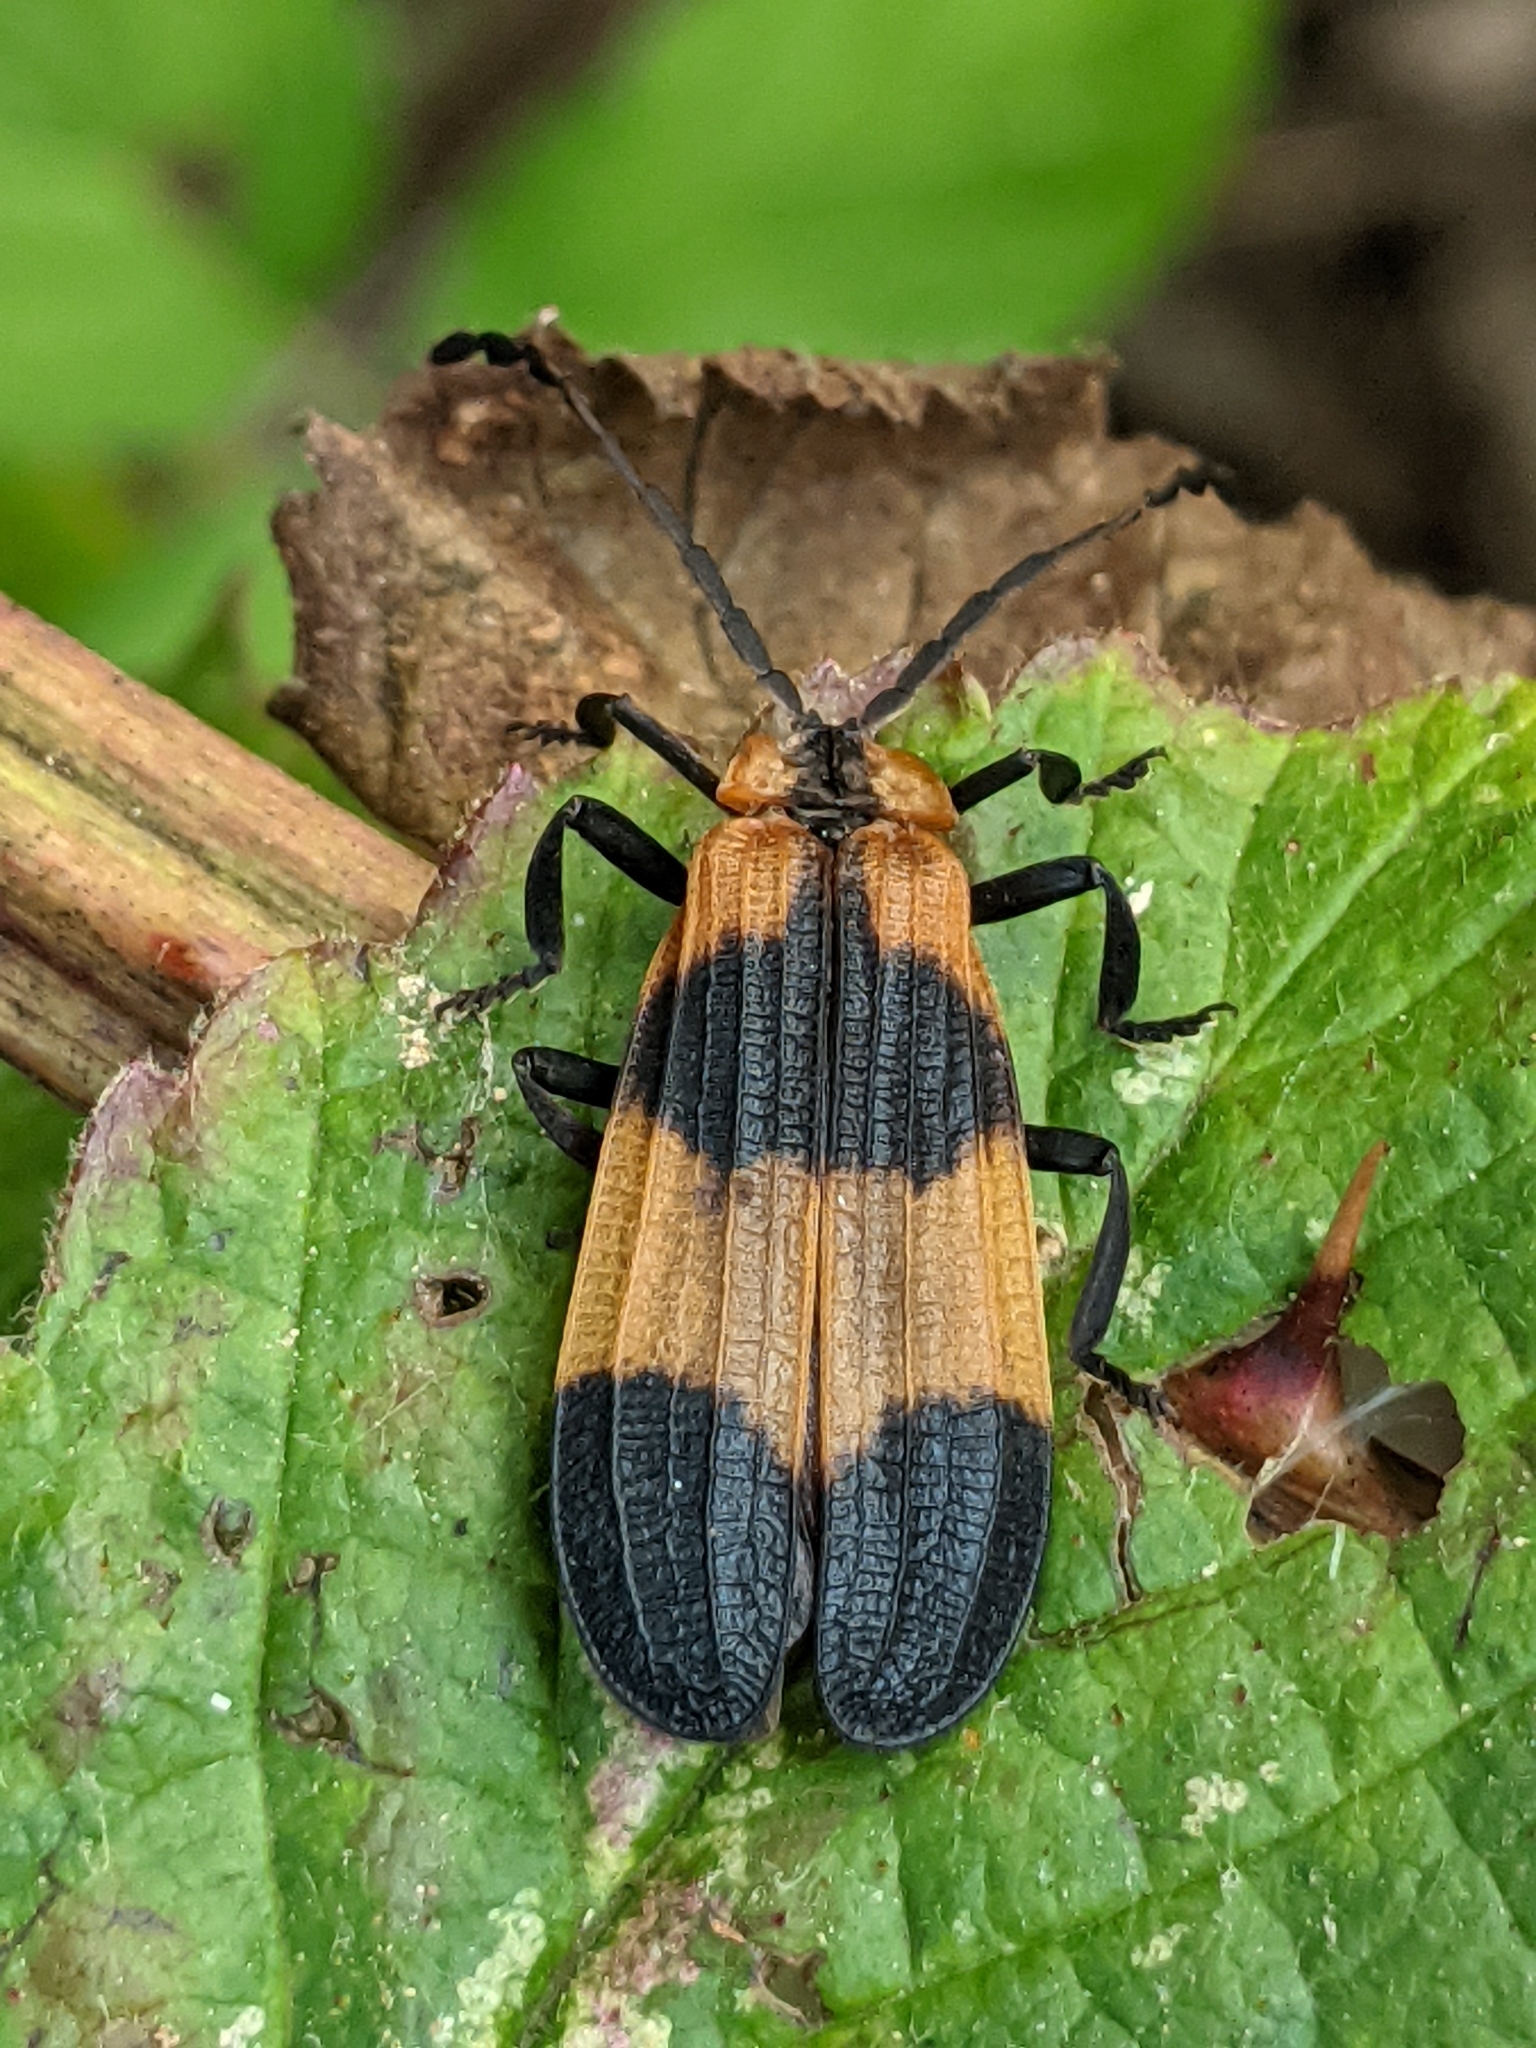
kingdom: Animalia
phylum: Arthropoda
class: Insecta
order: Coleoptera
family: Lycidae
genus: Calopteron
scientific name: Calopteron reticulatum
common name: Banded net-winged beetle
